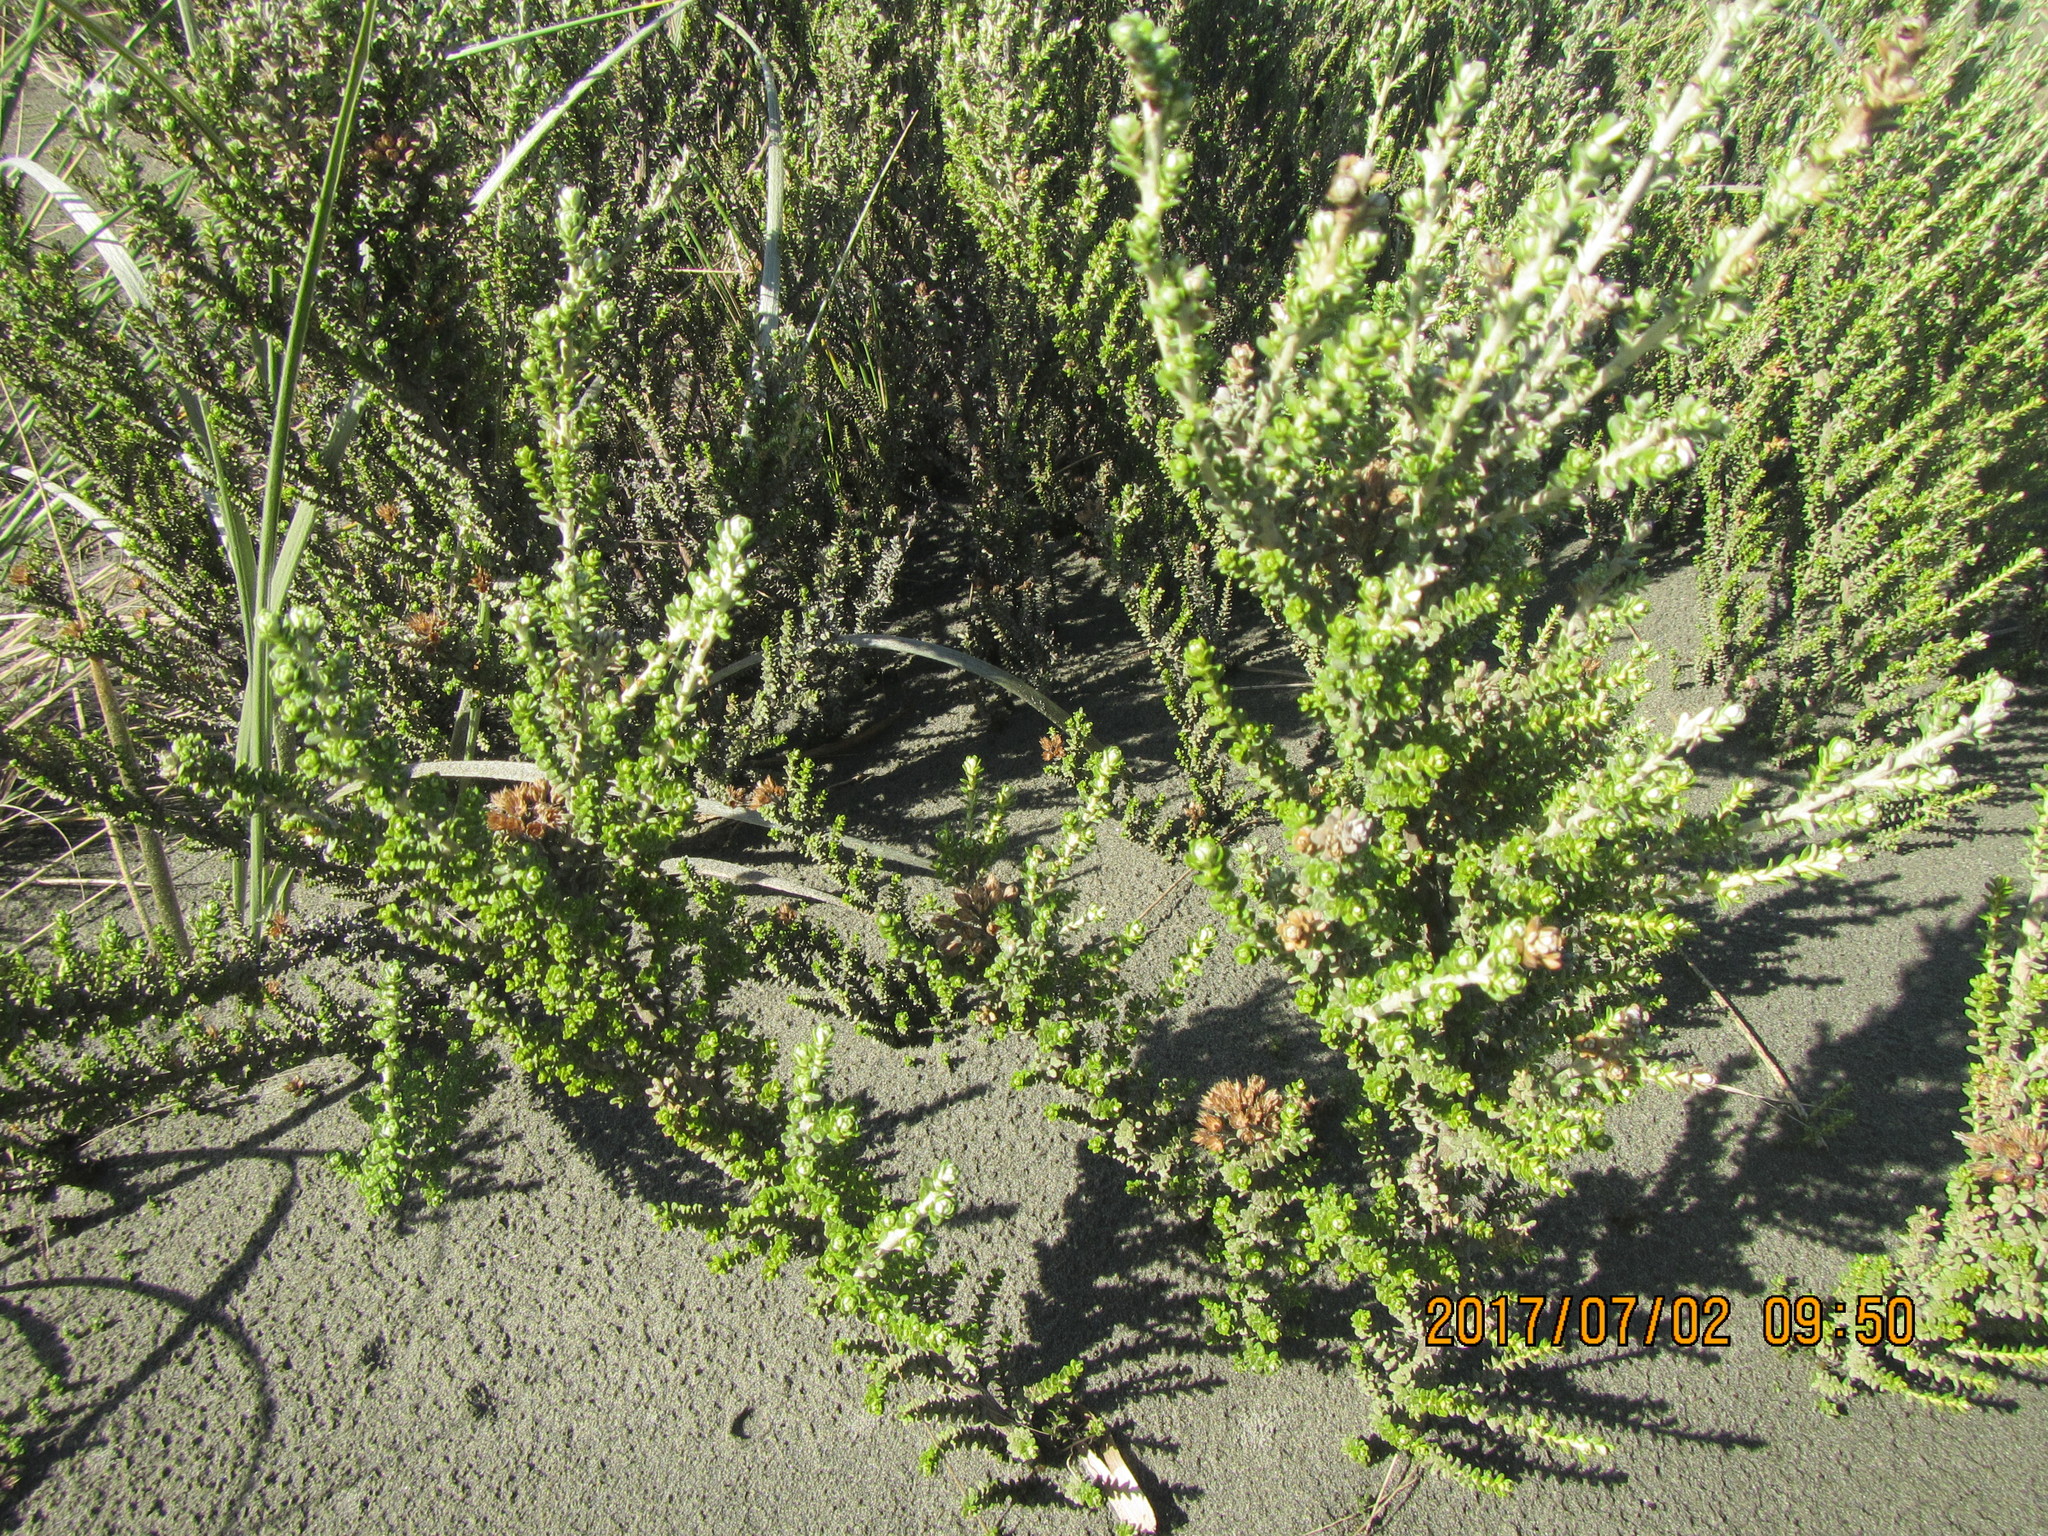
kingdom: Plantae
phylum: Tracheophyta
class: Magnoliopsida
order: Asterales
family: Asteraceae
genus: Ozothamnus
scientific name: Ozothamnus leptophyllus
